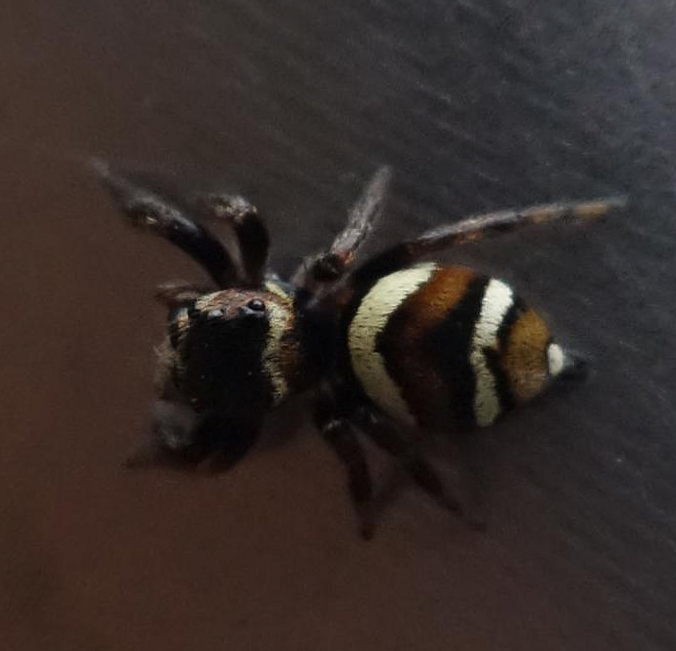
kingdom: Animalia
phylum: Arthropoda
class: Arachnida
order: Araneae
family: Salticidae
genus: Ptocasius
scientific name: Ptocasius strupifer
